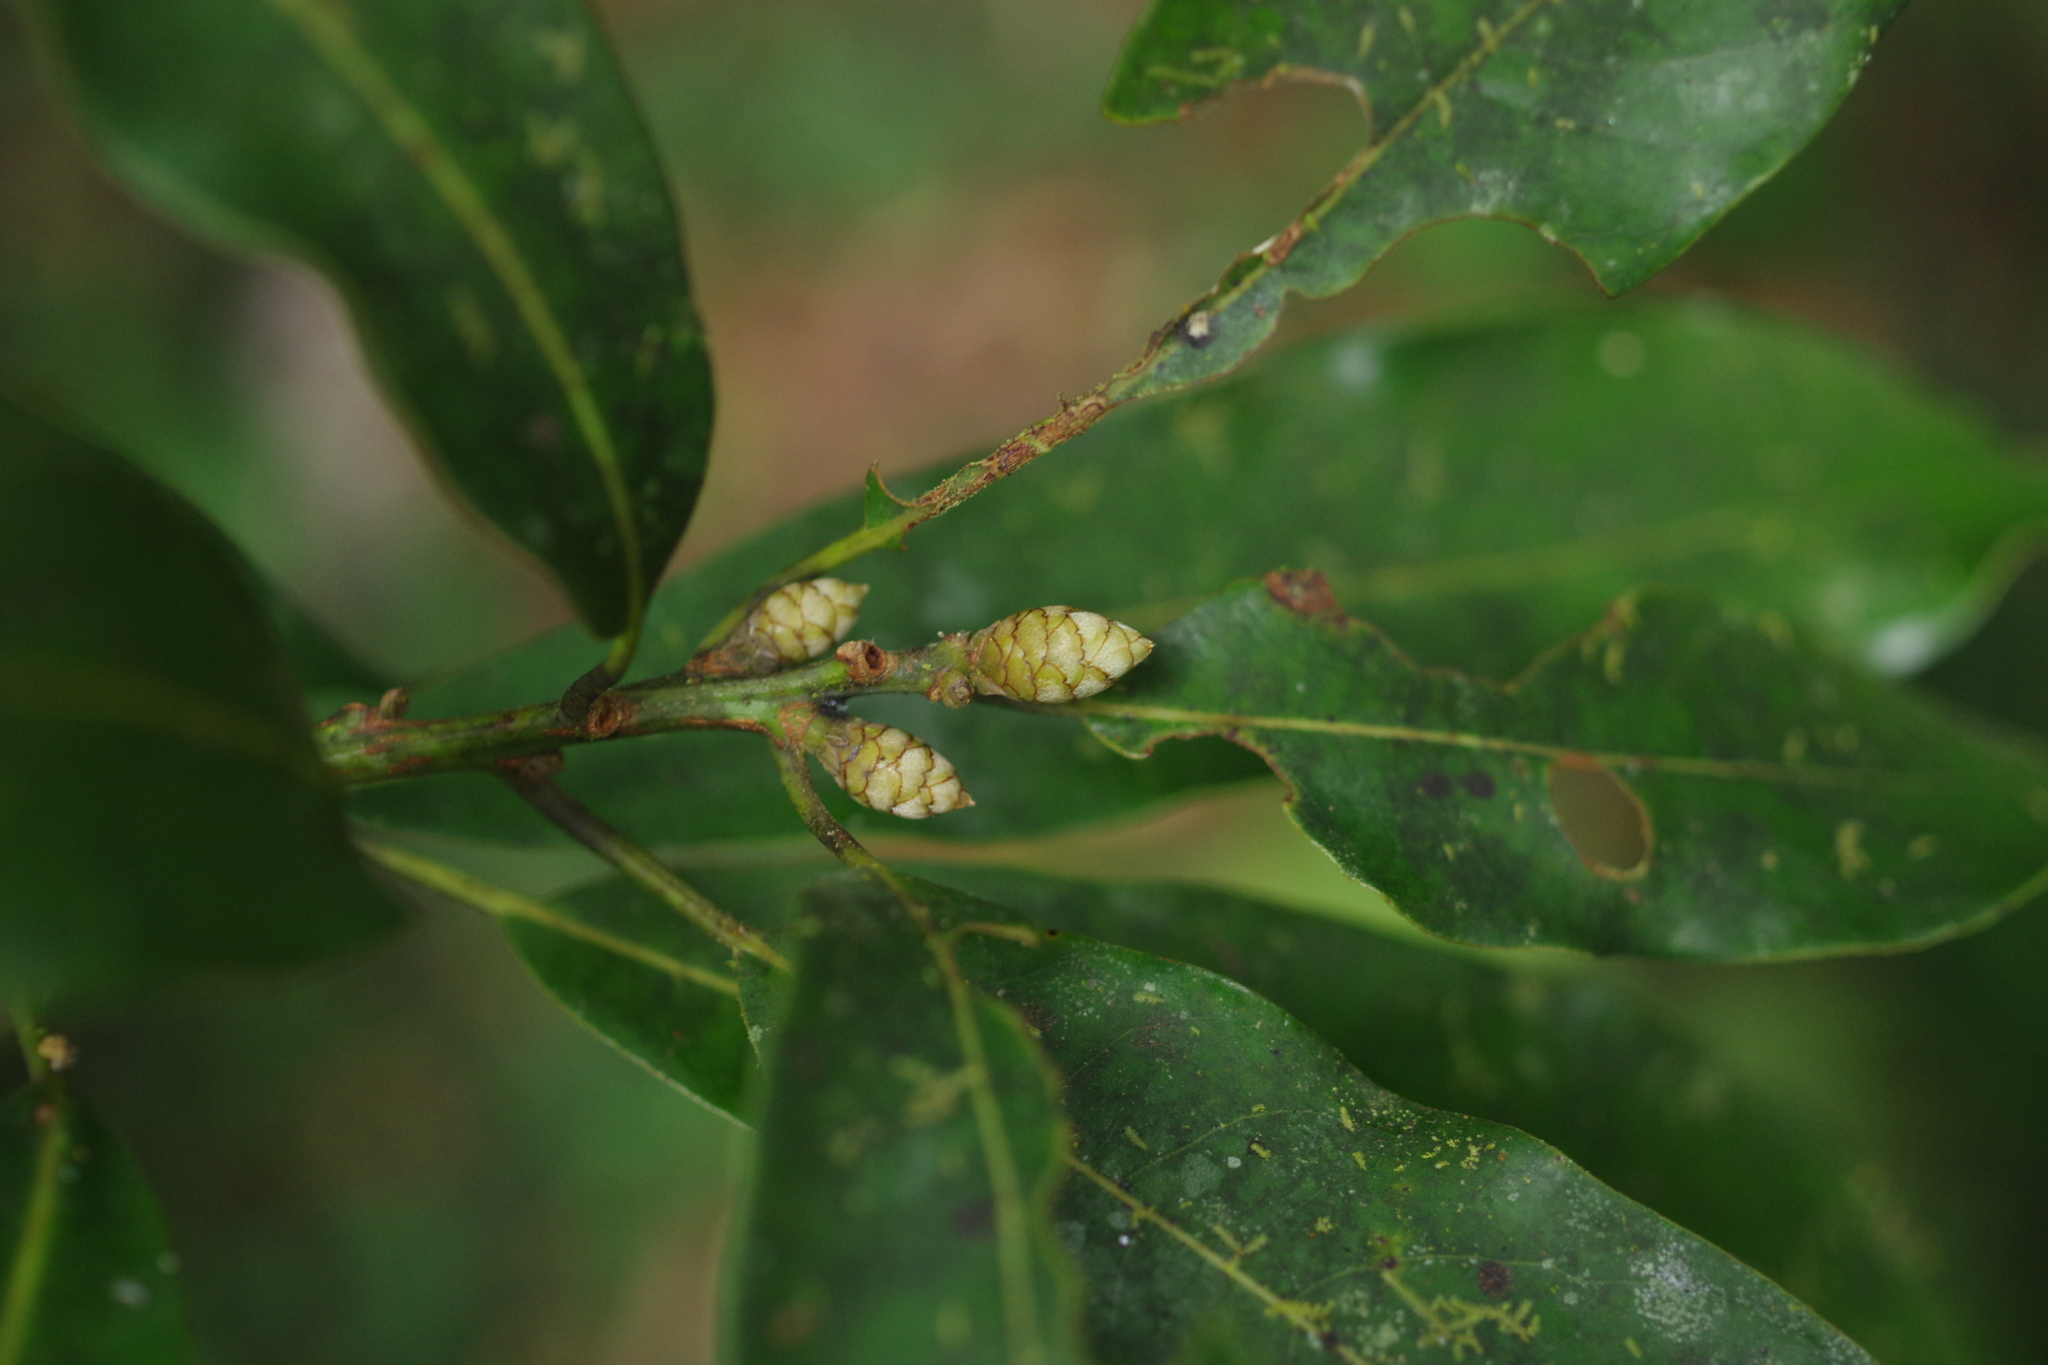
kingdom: Plantae
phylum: Tracheophyta
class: Magnoliopsida
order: Laurales
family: Lauraceae
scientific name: Lauraceae
